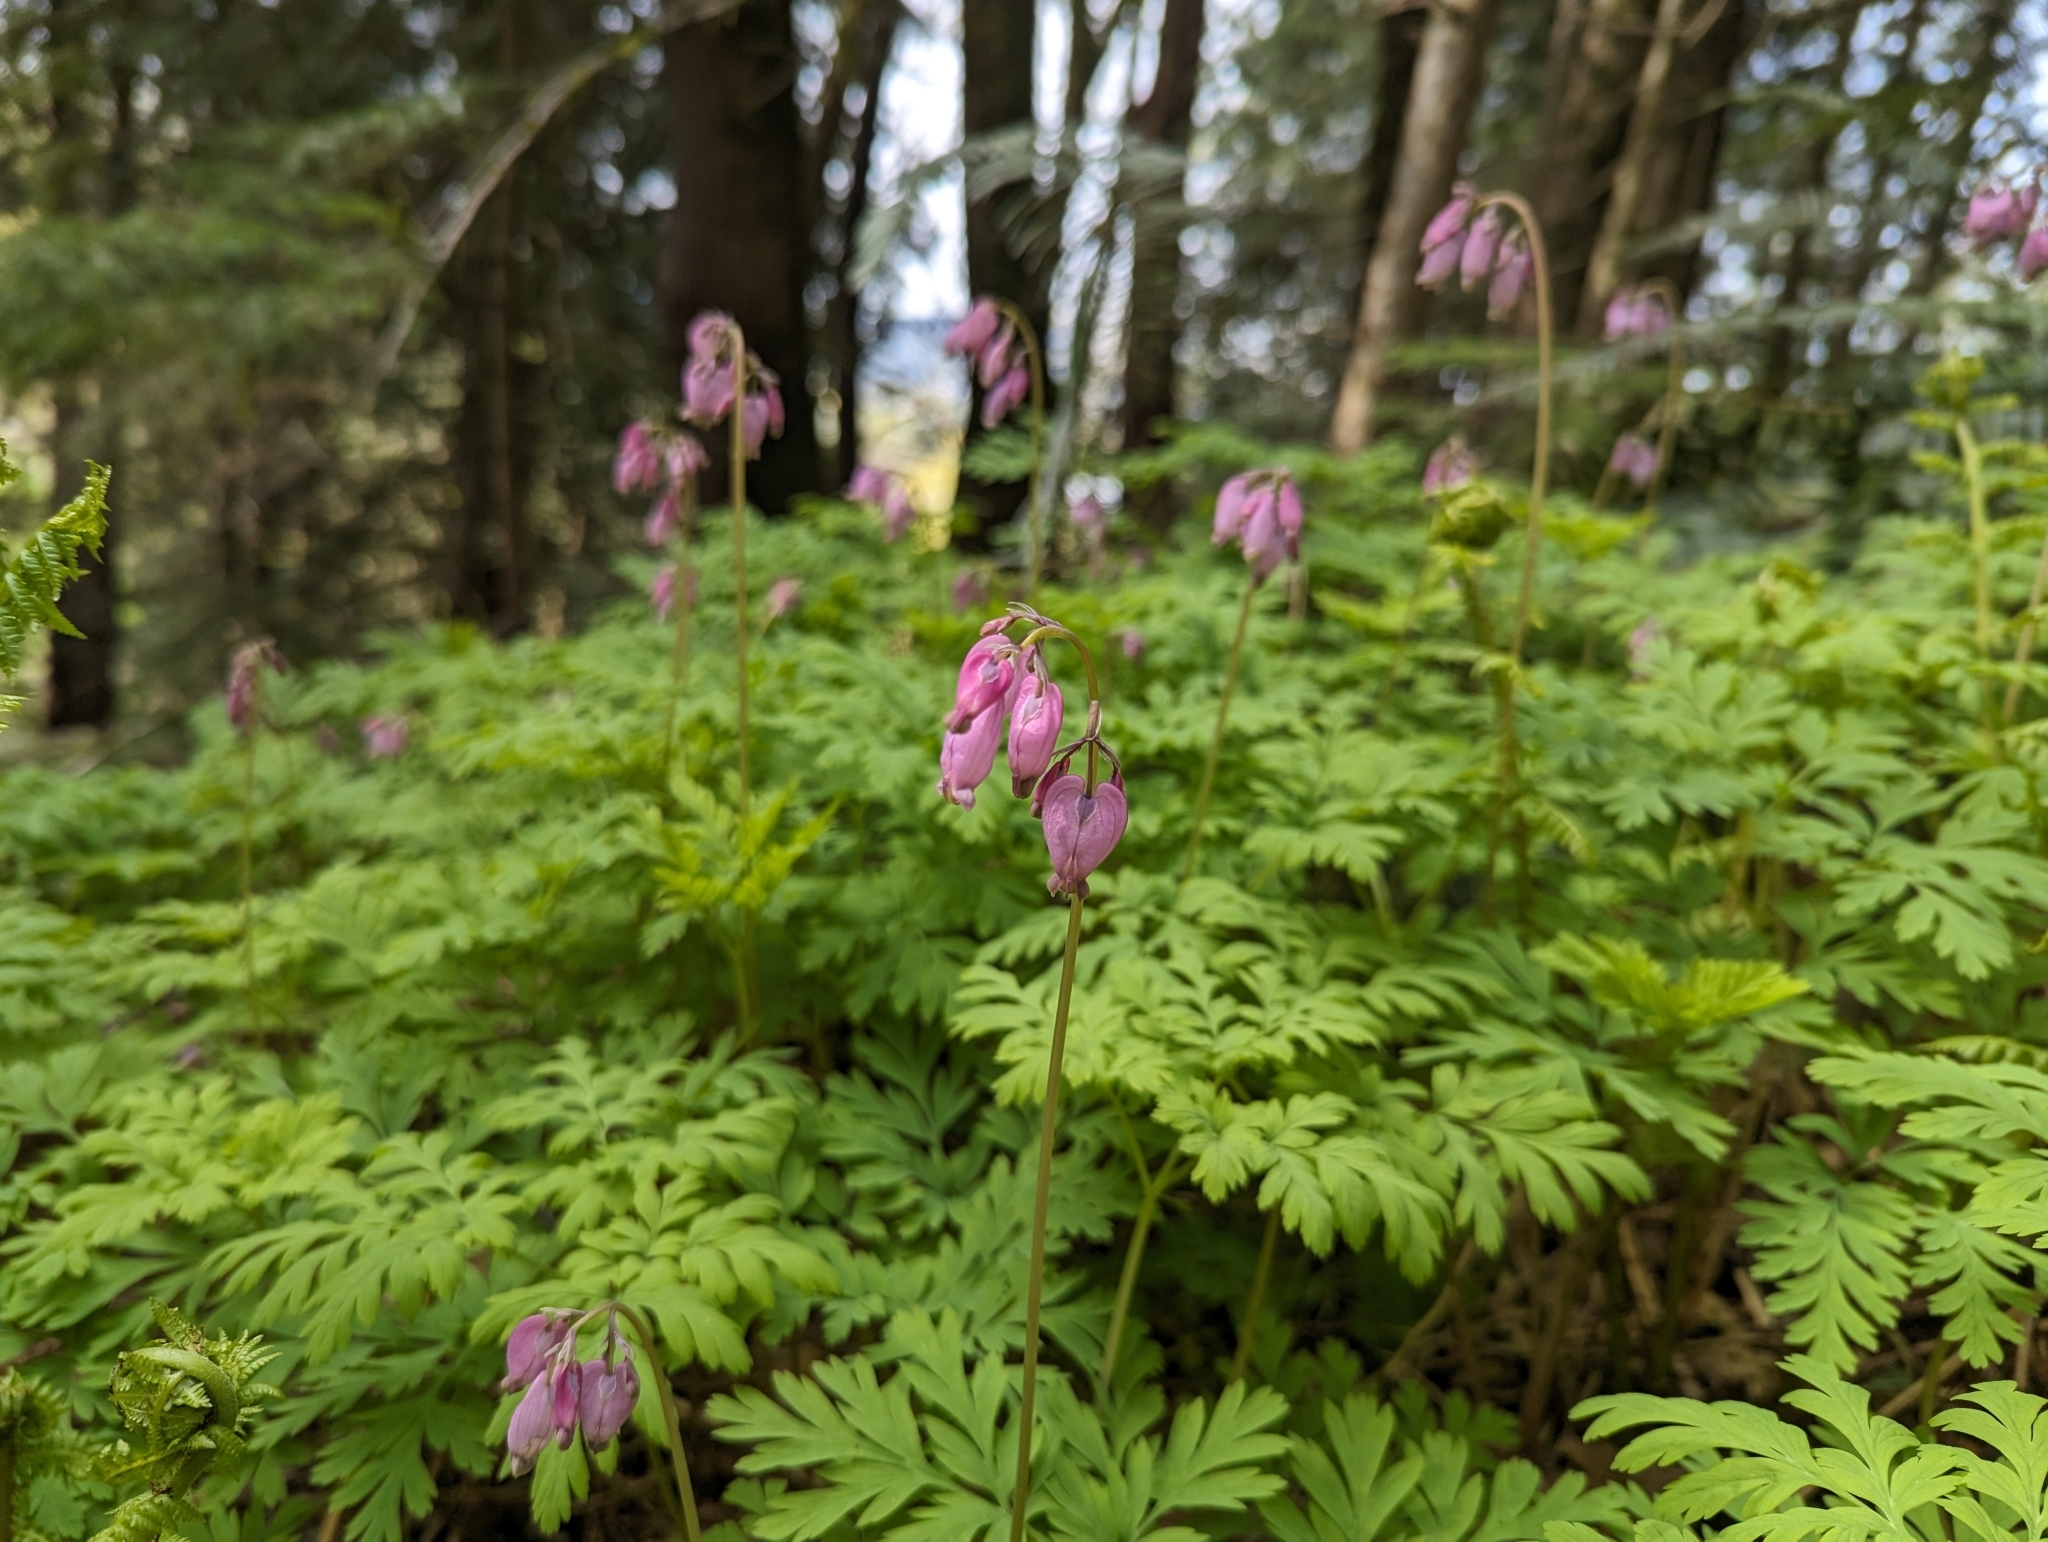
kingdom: Plantae
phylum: Tracheophyta
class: Magnoliopsida
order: Ranunculales
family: Papaveraceae
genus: Dicentra
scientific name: Dicentra formosa
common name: Bleeding-heart
